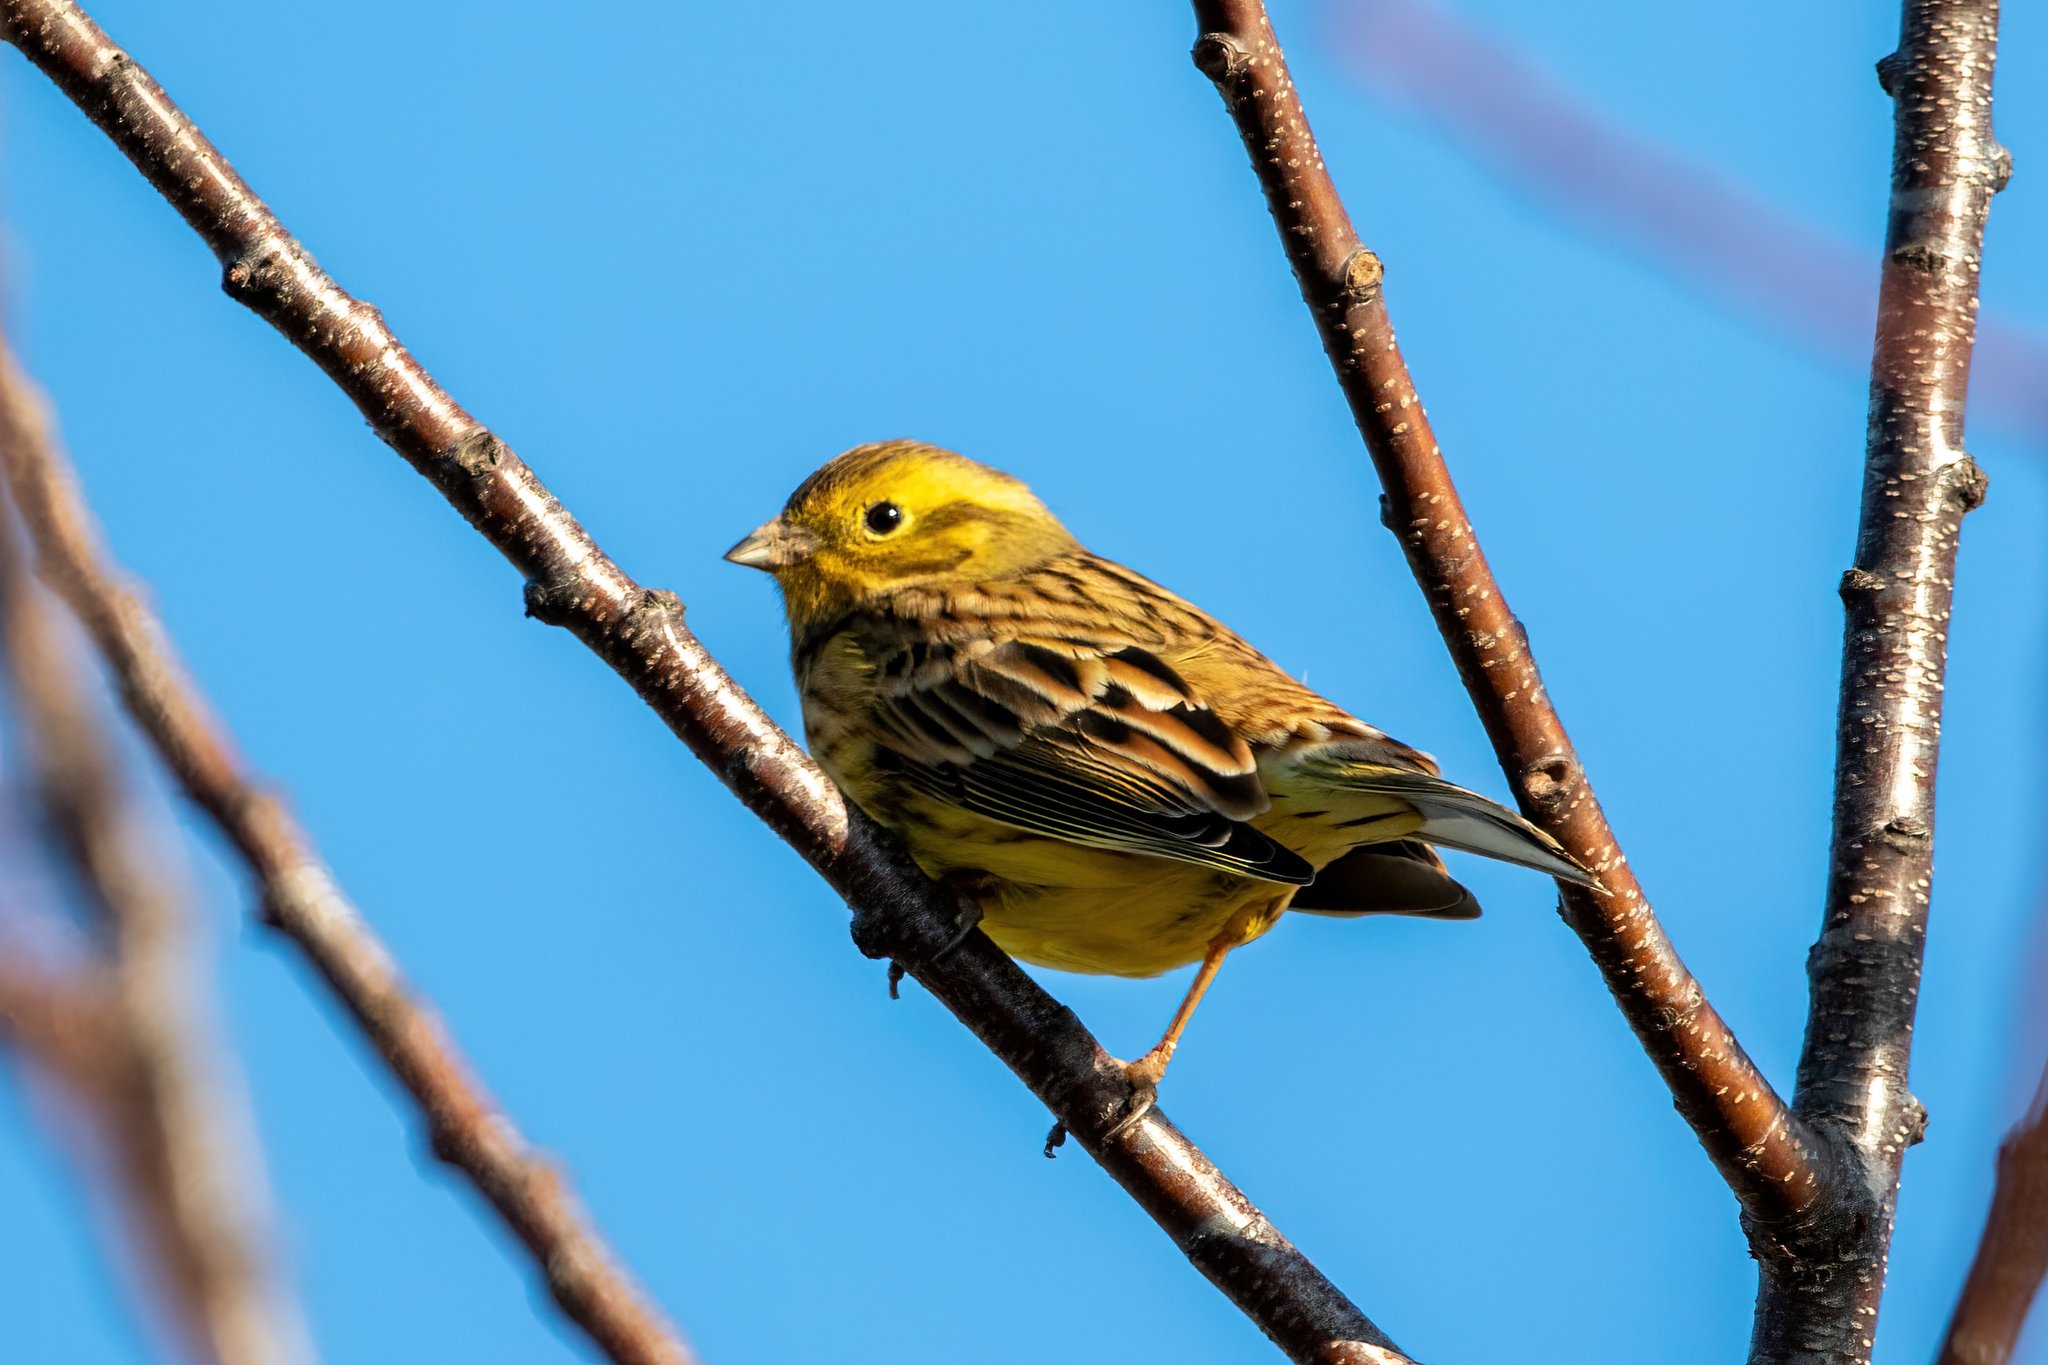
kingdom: Animalia
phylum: Chordata
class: Aves
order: Passeriformes
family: Emberizidae
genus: Emberiza
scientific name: Emberiza citrinella
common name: Yellowhammer
